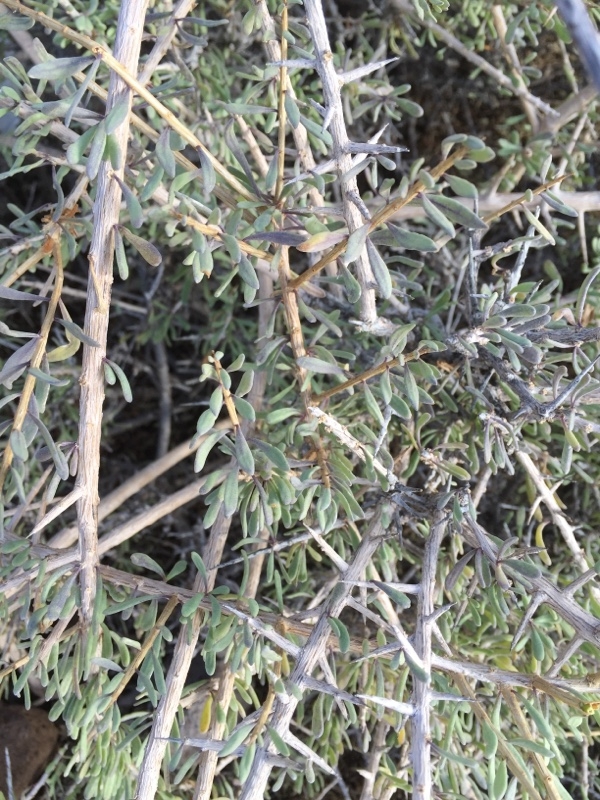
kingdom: Plantae
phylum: Tracheophyta
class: Magnoliopsida
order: Solanales
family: Solanaceae
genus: Lycium
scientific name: Lycium intricatum
